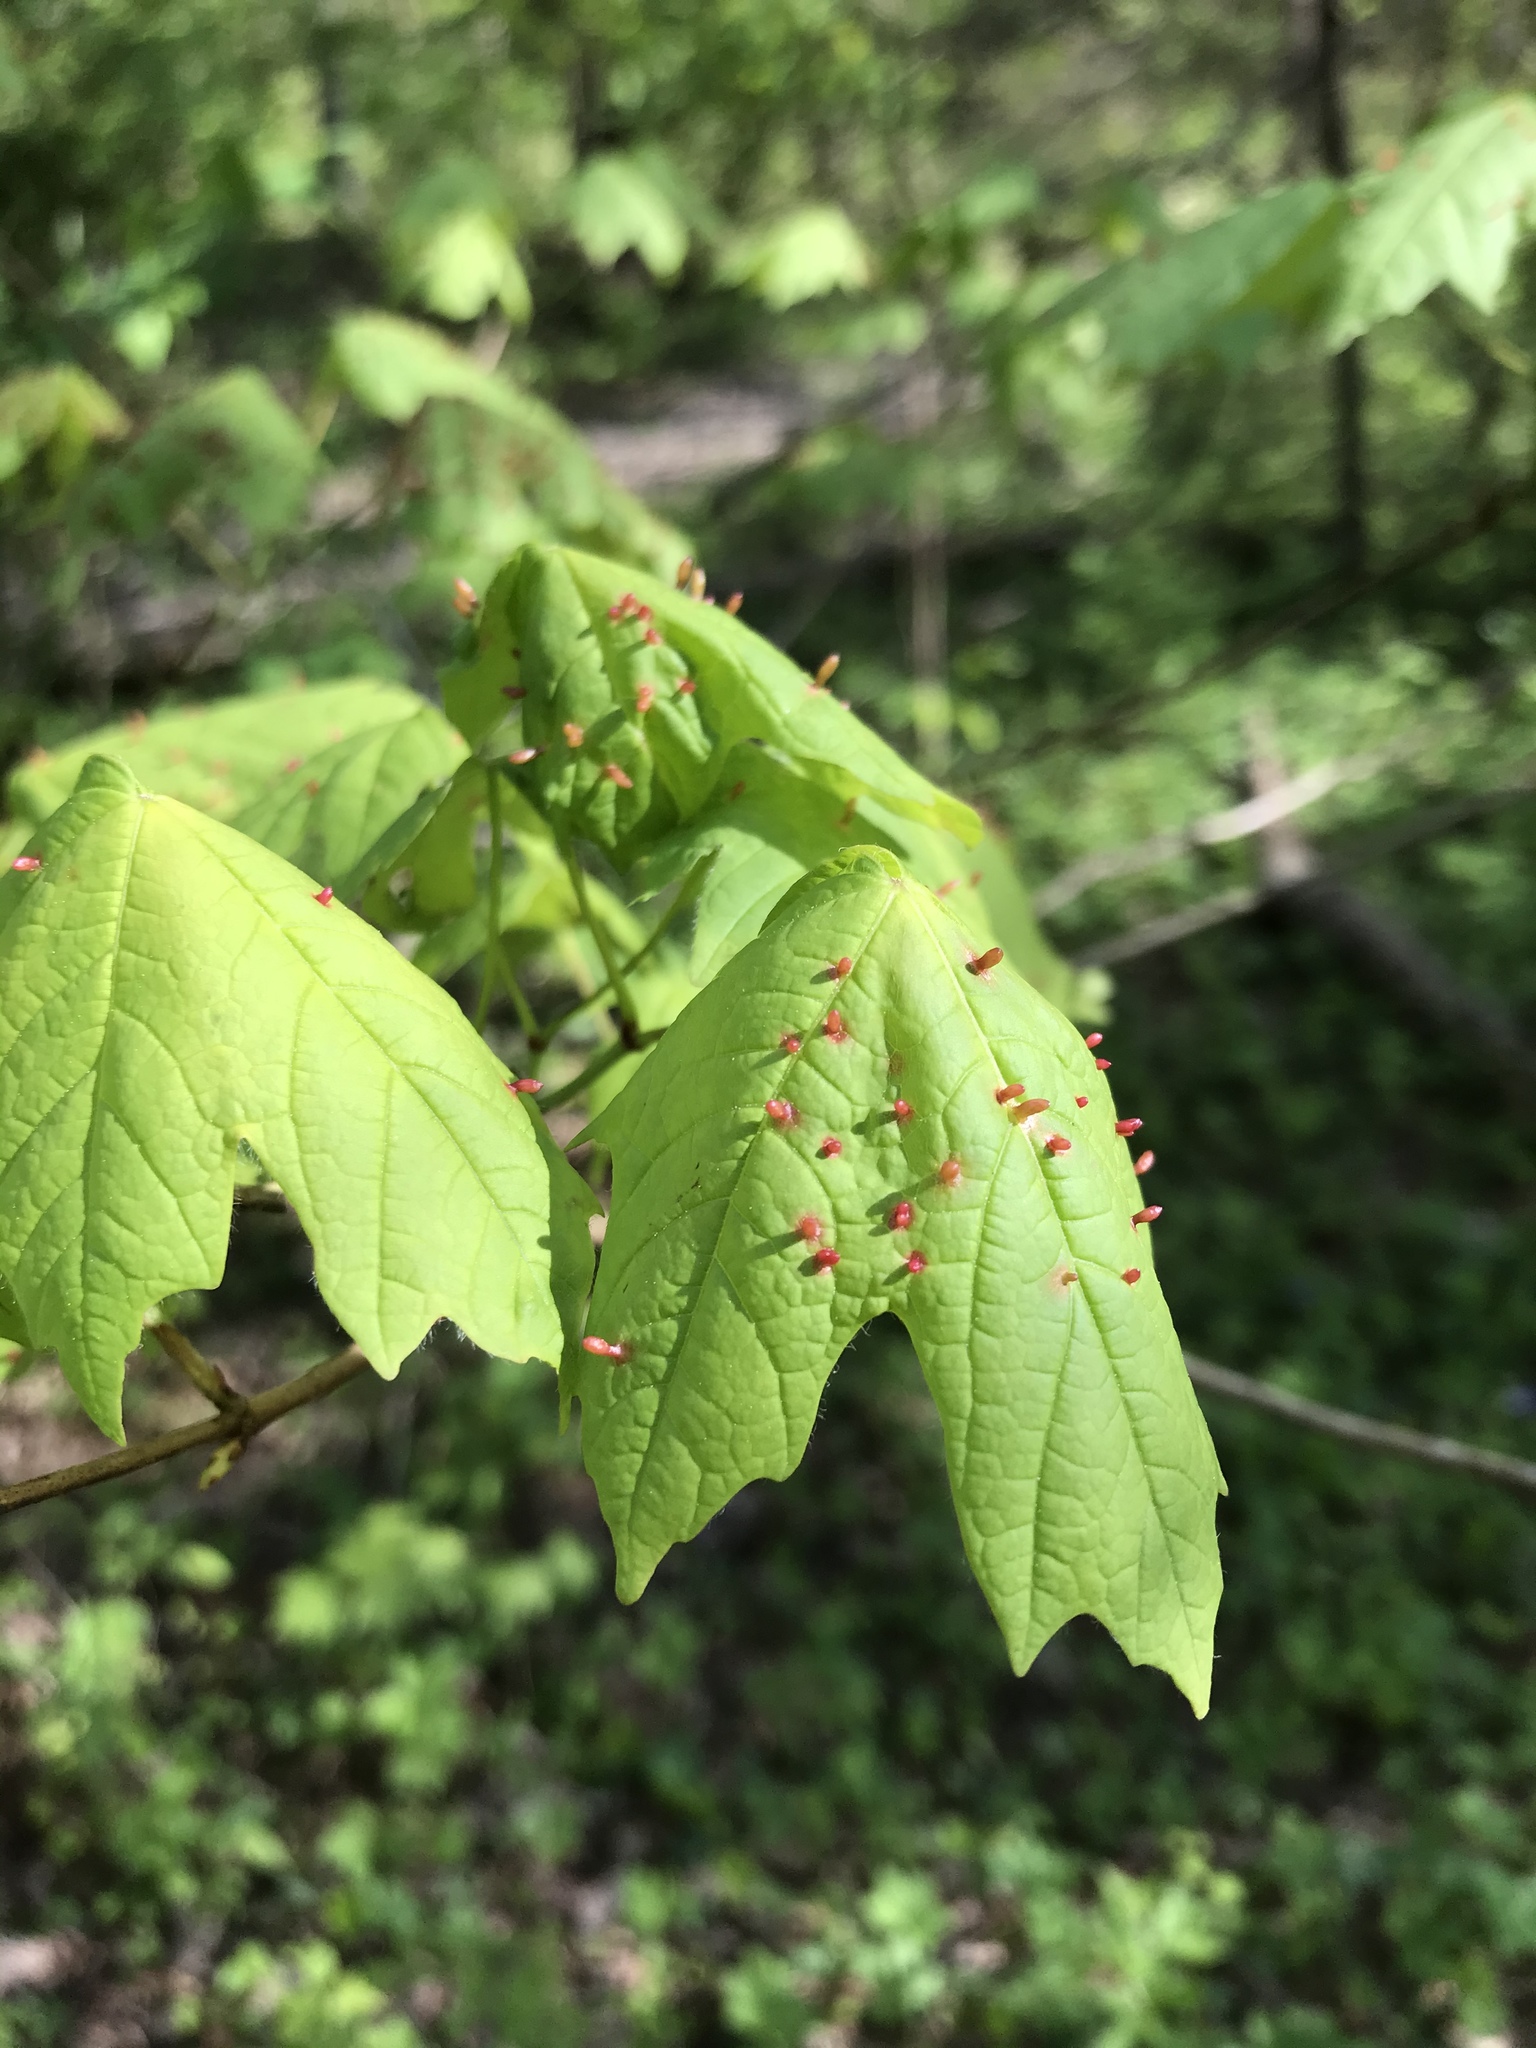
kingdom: Animalia
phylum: Arthropoda
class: Arachnida
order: Trombidiformes
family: Eriophyidae
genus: Vasates
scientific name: Vasates aceriscrumena
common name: Maple spindle gall mite
